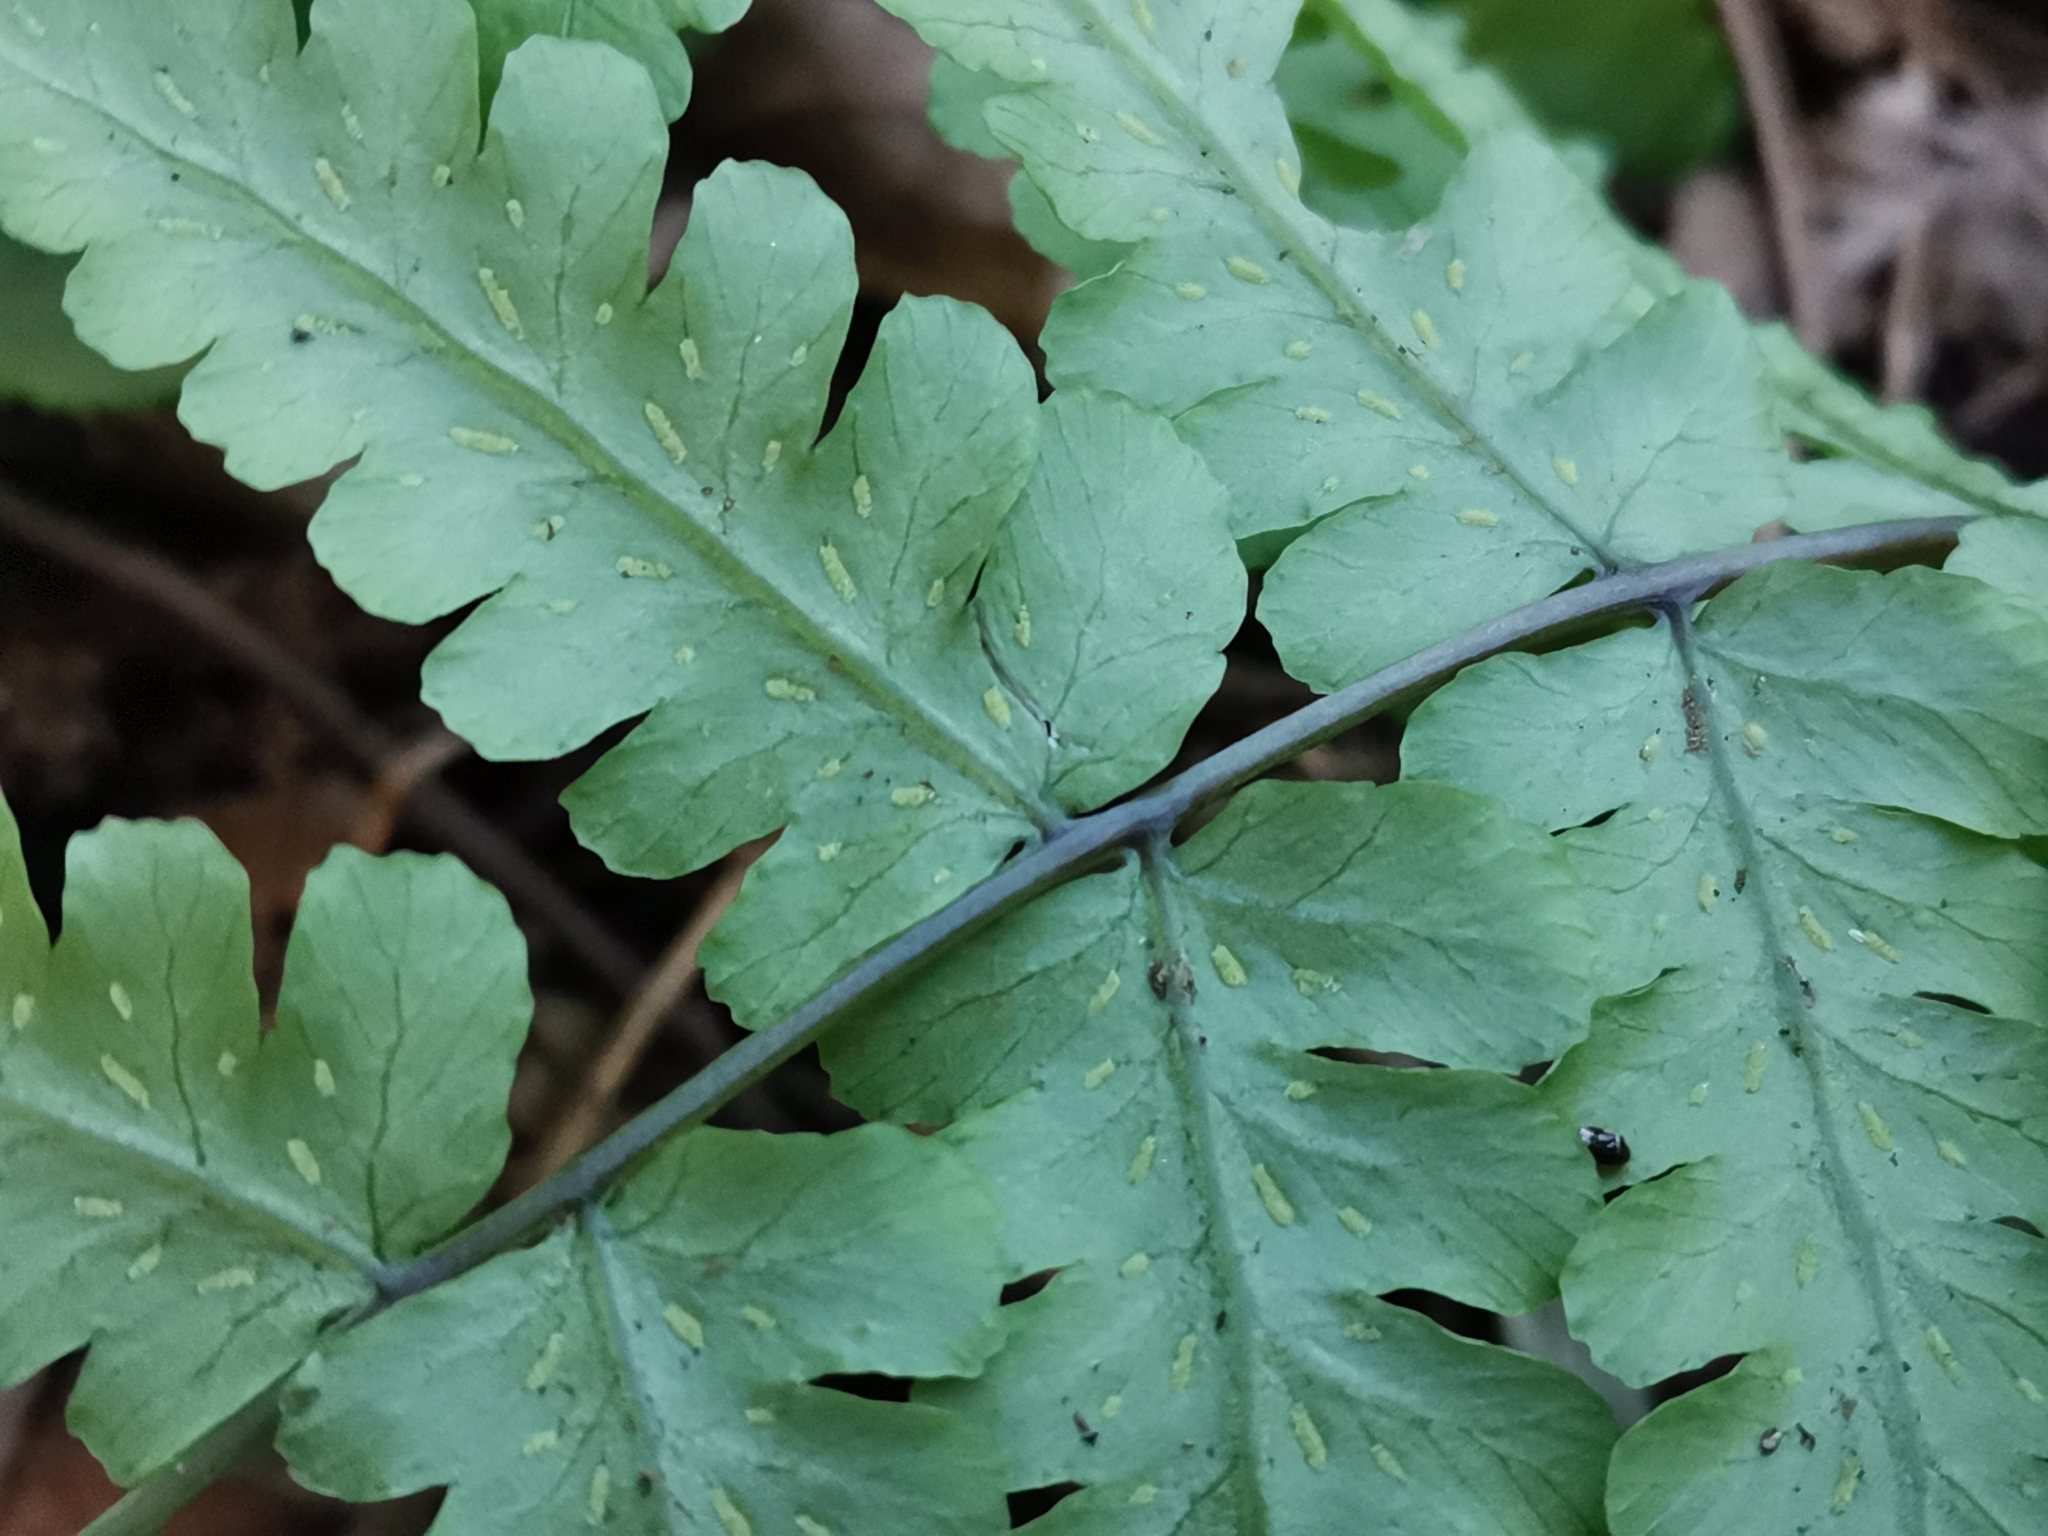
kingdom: Plantae
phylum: Tracheophyta
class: Polypodiopsida
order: Polypodiales
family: Athyriaceae
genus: Cornopteris
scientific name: Cornopteris decurrentialata
